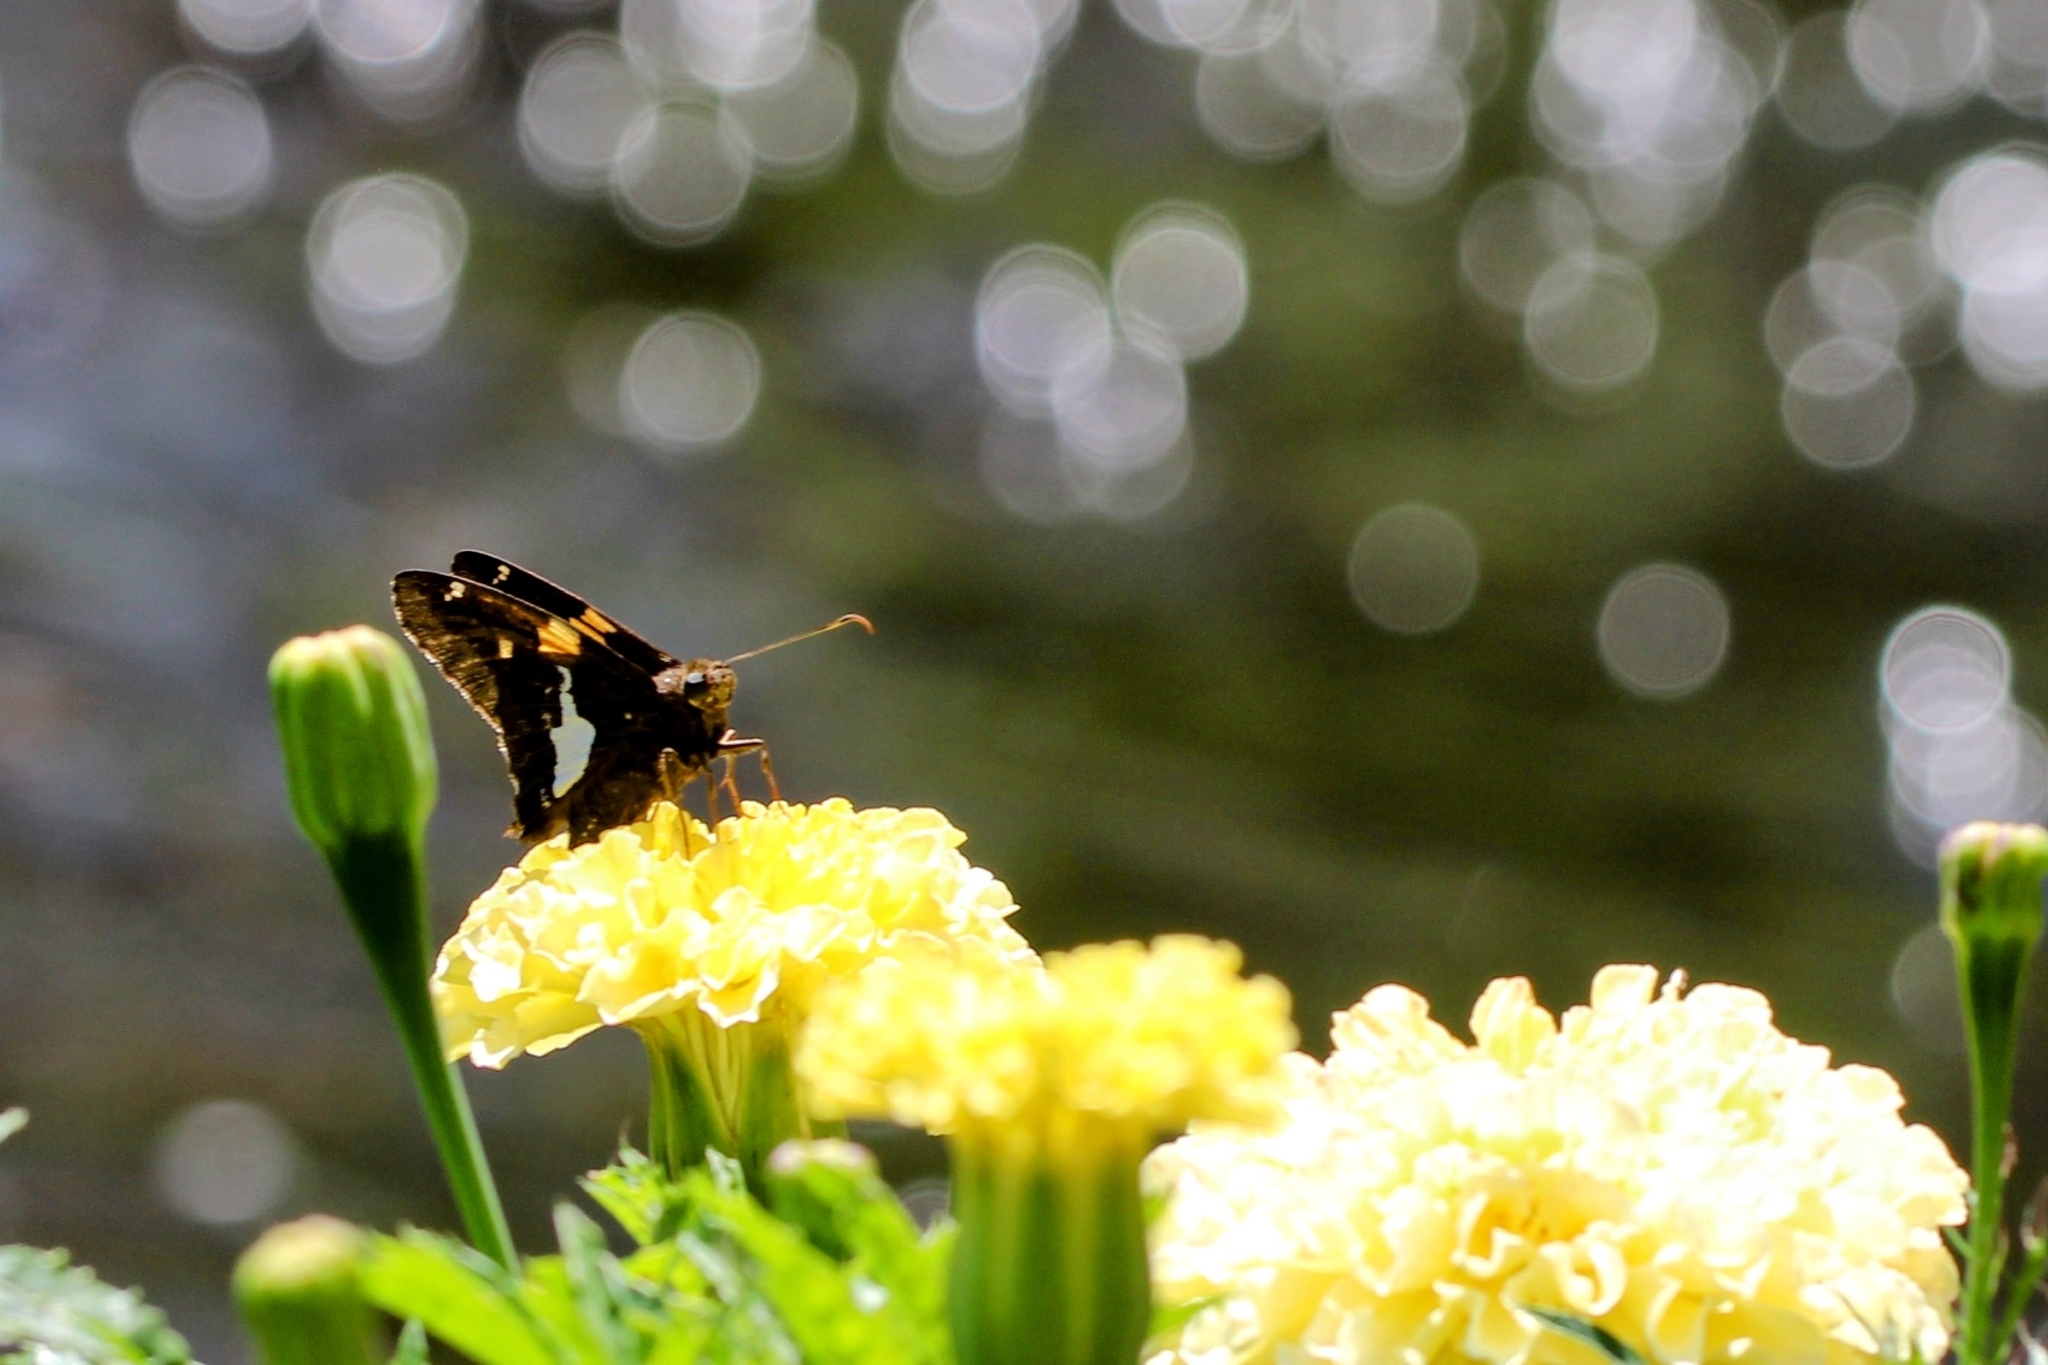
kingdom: Animalia
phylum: Arthropoda
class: Insecta
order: Lepidoptera
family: Hesperiidae
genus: Epargyreus
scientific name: Epargyreus clarus
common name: Silver-spotted skipper
